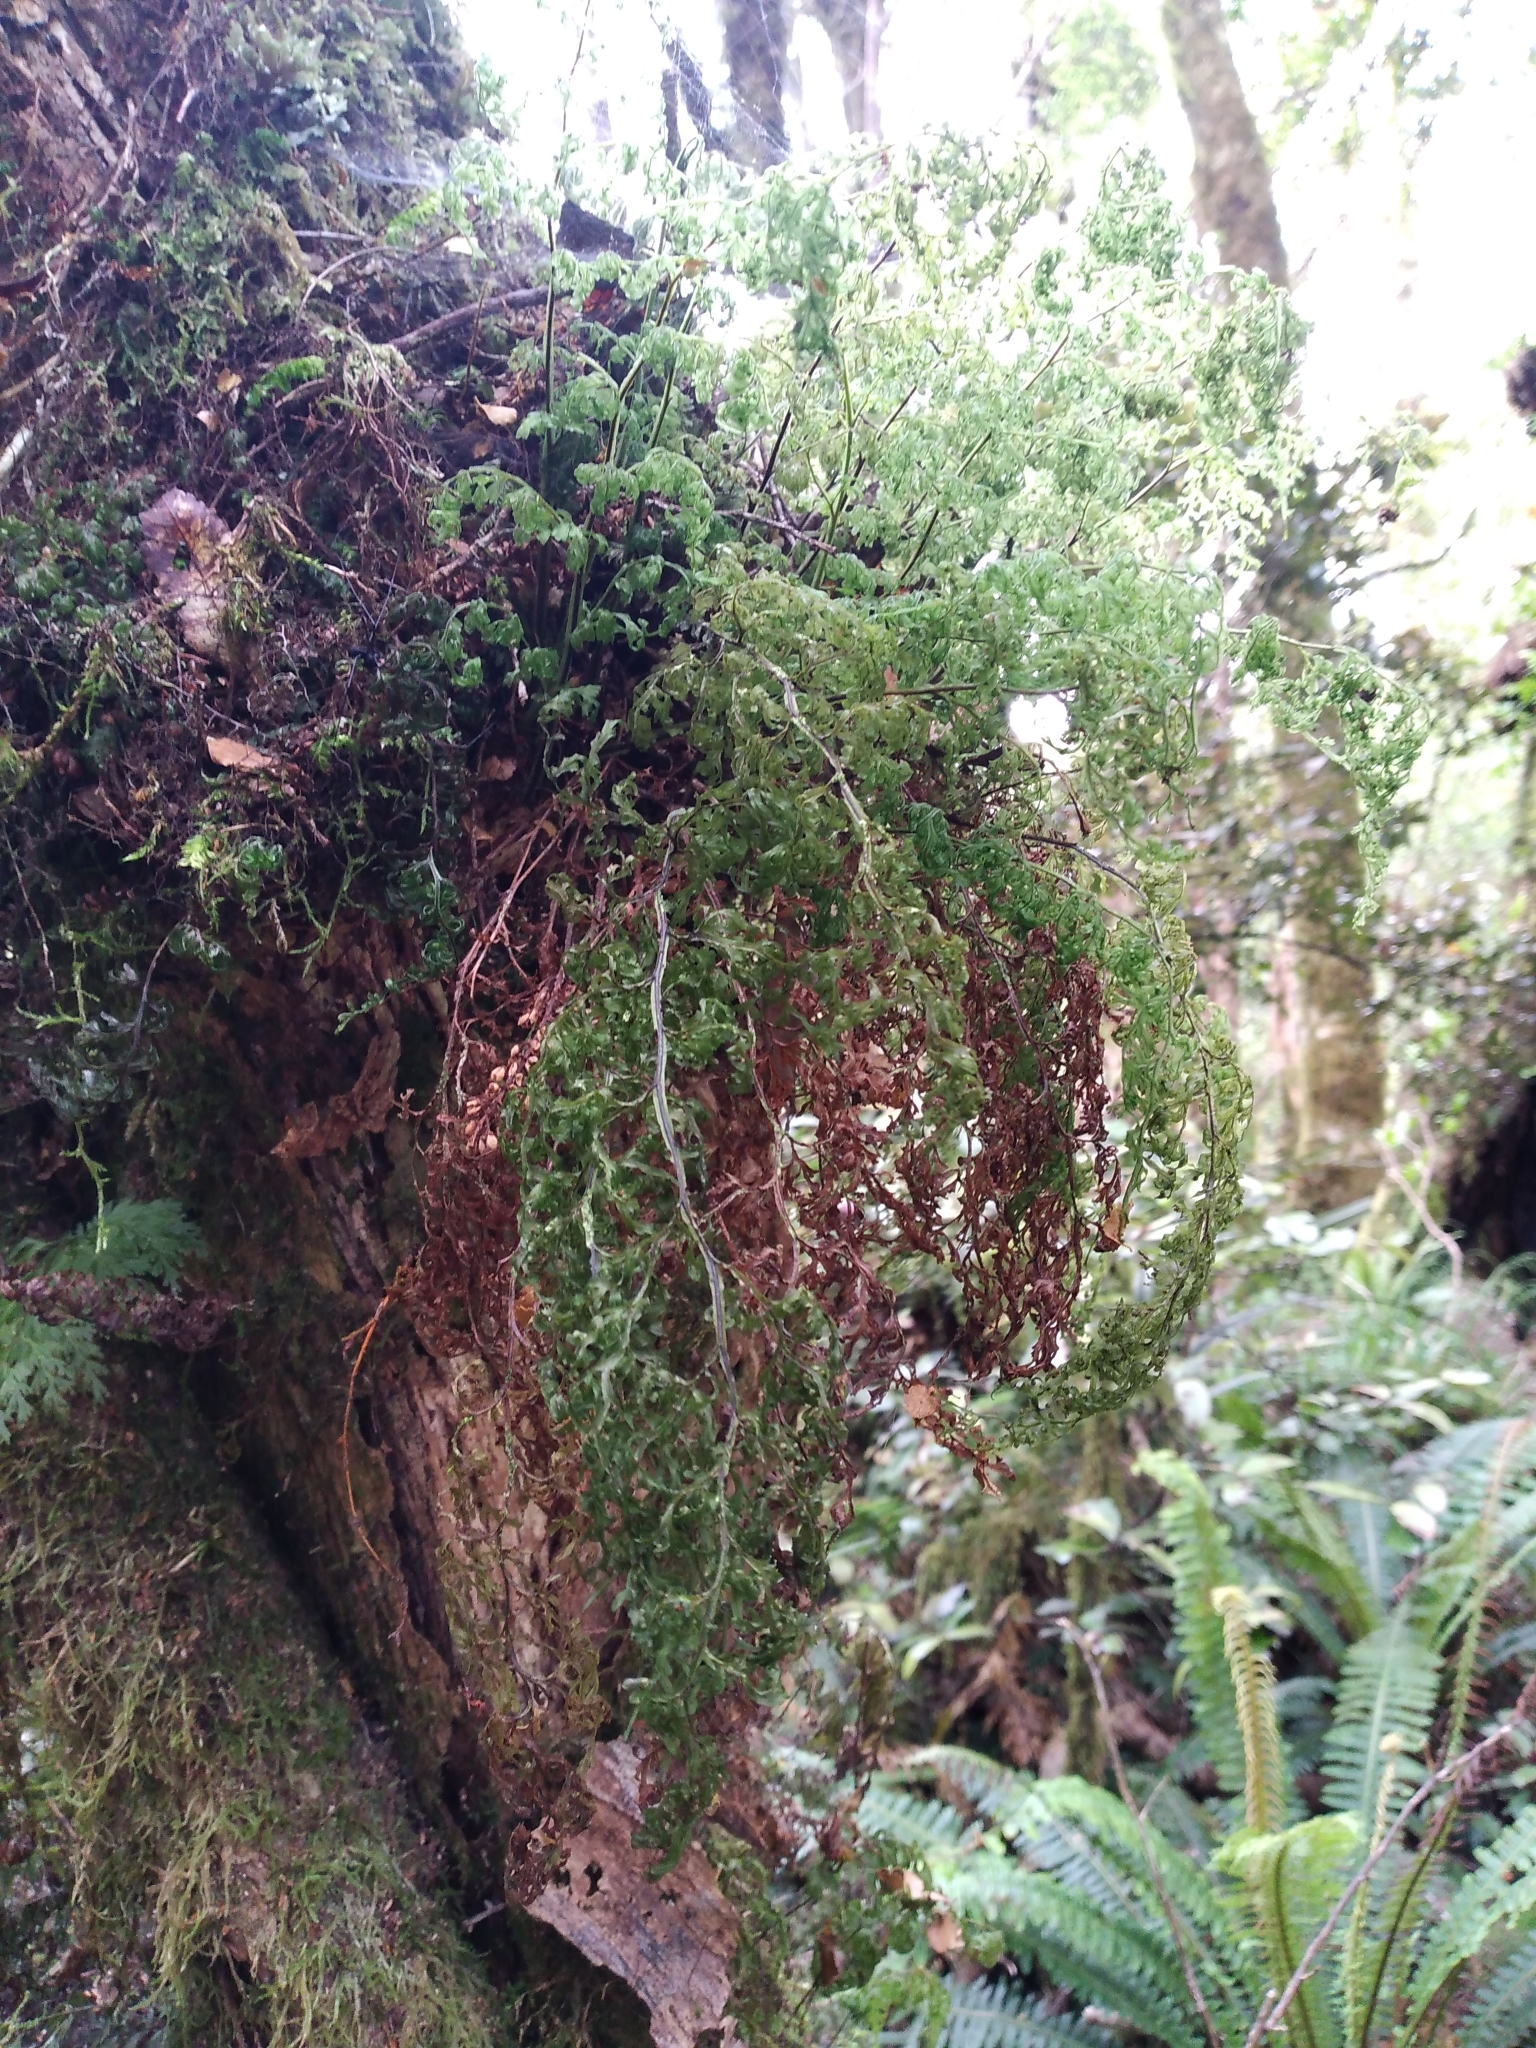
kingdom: Plantae
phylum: Tracheophyta
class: Polypodiopsida
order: Hymenophyllales
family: Hymenophyllaceae
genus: Hymenophyllum
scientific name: Hymenophyllum pulcherrimum
